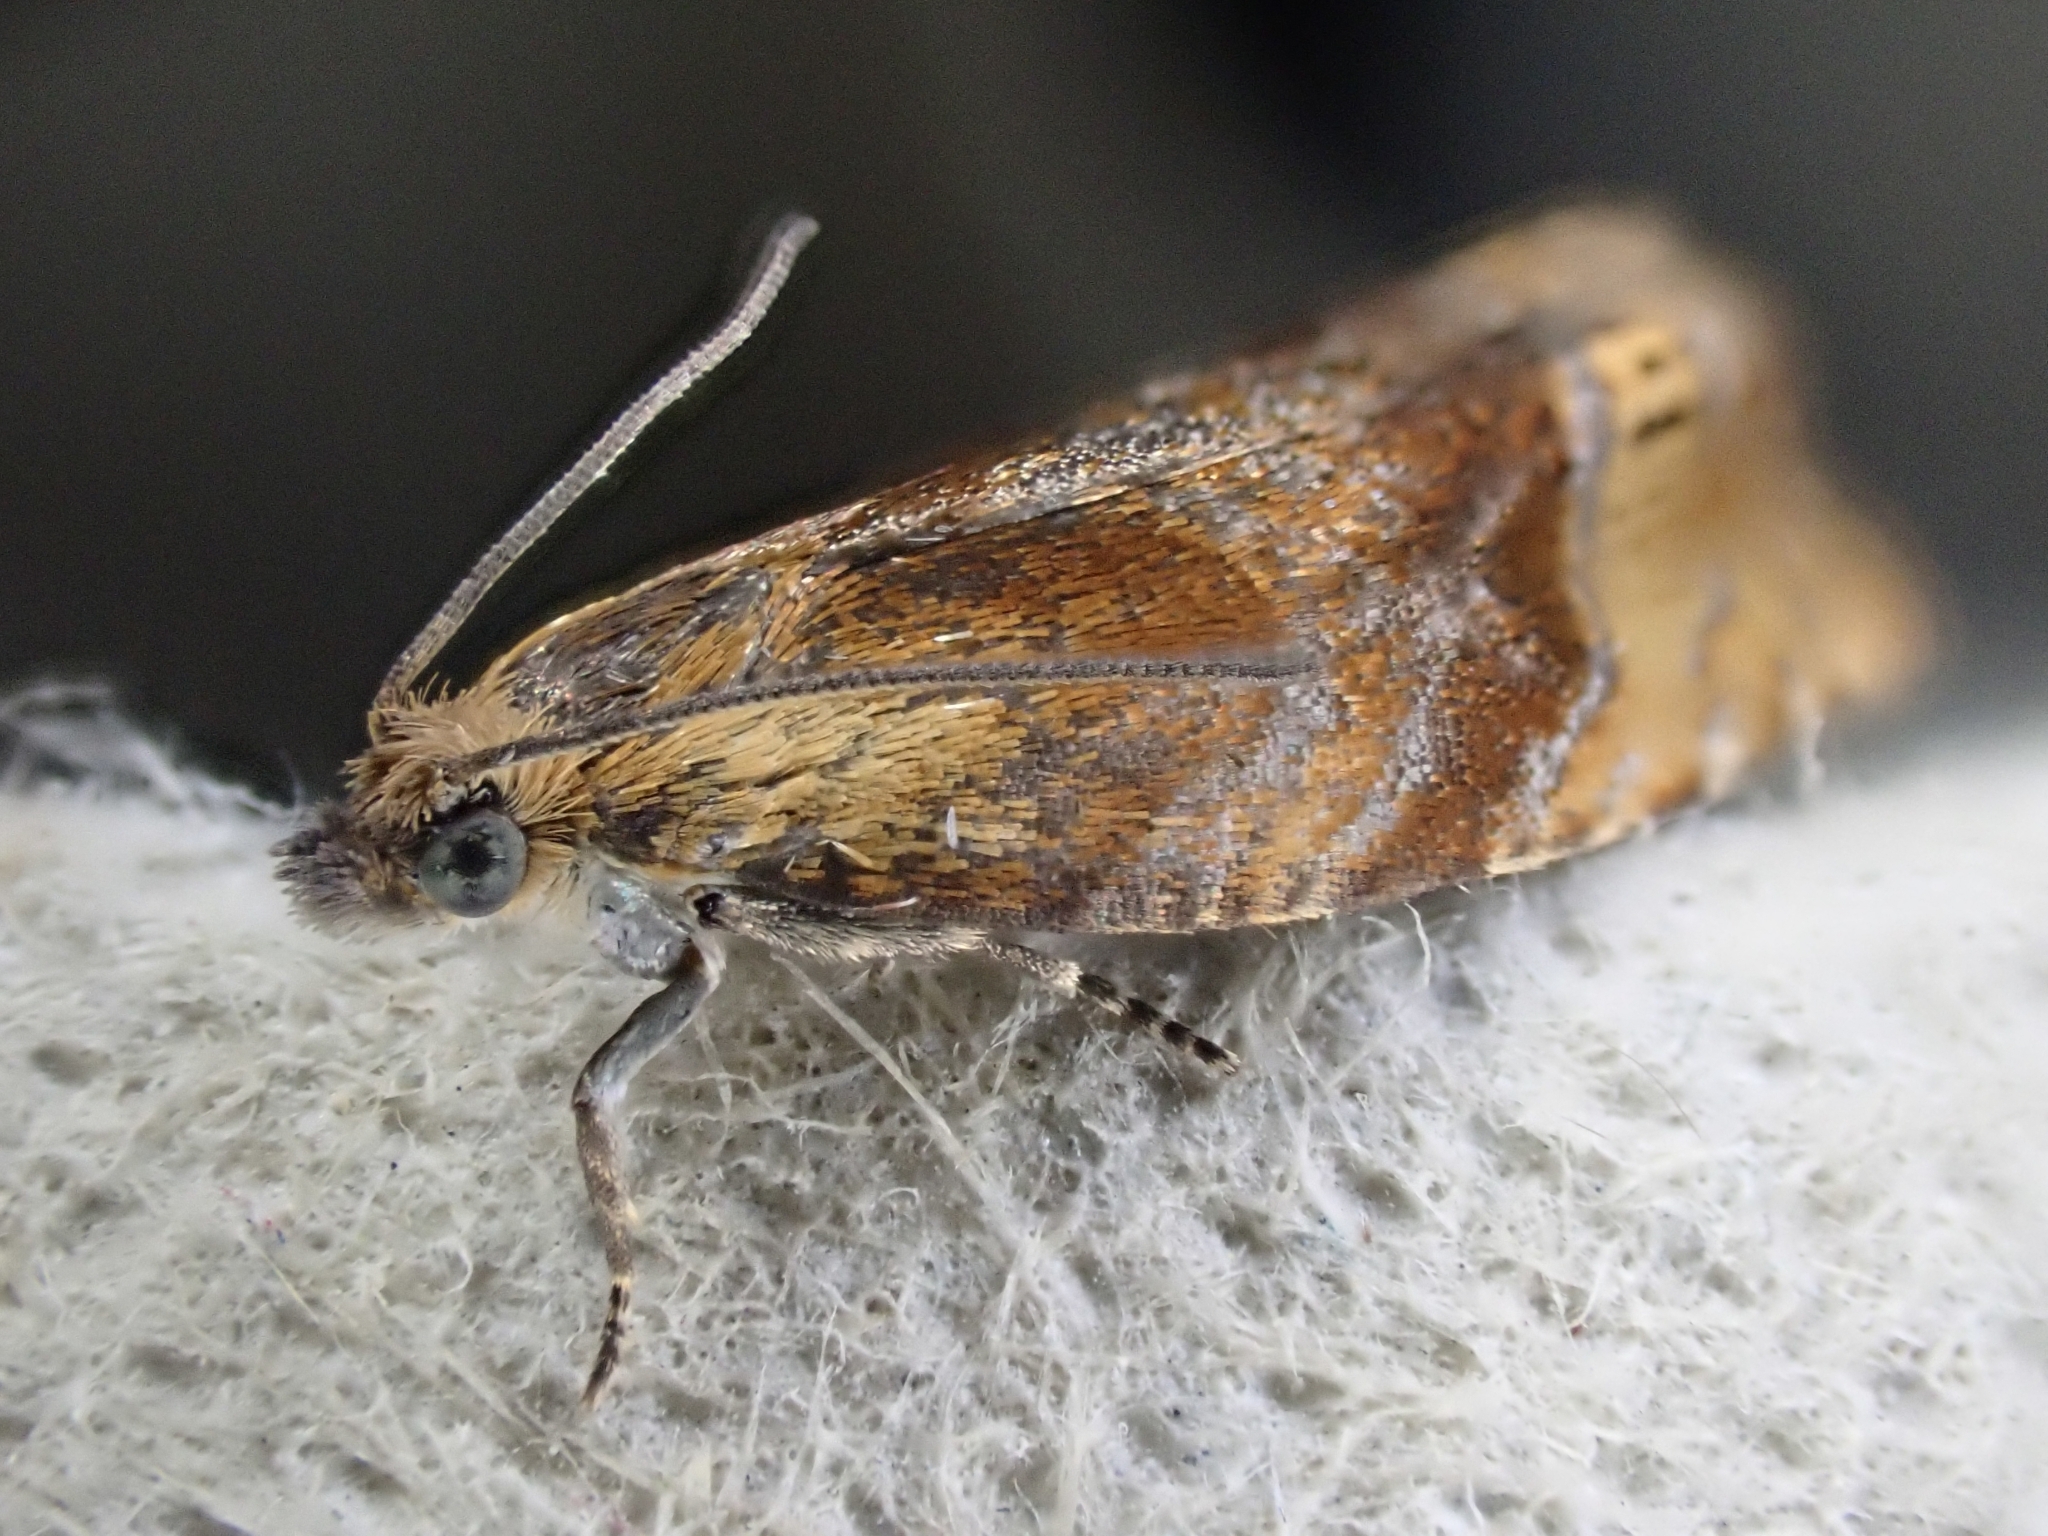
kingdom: Animalia
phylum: Arthropoda
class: Insecta
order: Lepidoptera
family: Tortricidae
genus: Eucosmomorpha
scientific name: Eucosmomorpha albersana
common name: Honeysuckle bell
